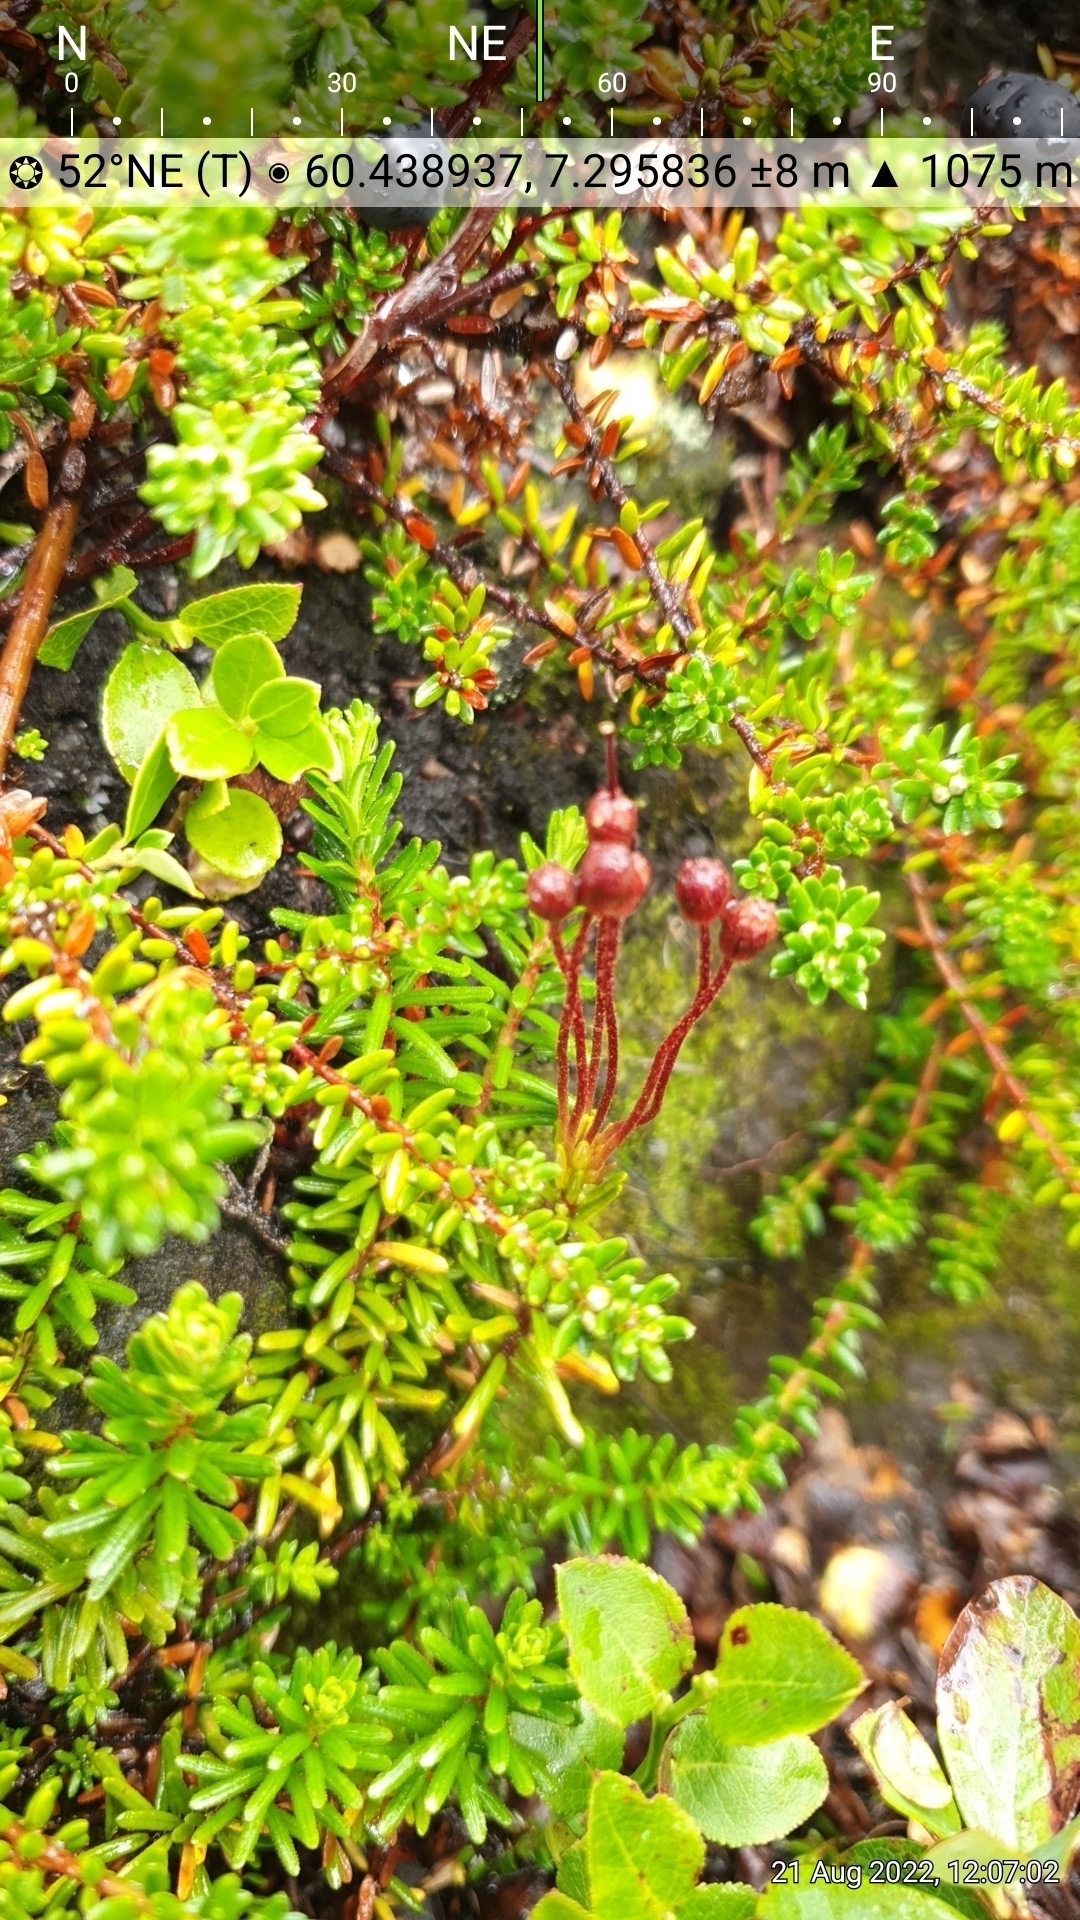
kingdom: Plantae
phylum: Tracheophyta
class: Magnoliopsida
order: Ericales
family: Ericaceae
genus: Phyllodoce
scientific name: Phyllodoce caerulea
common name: Blue heath
